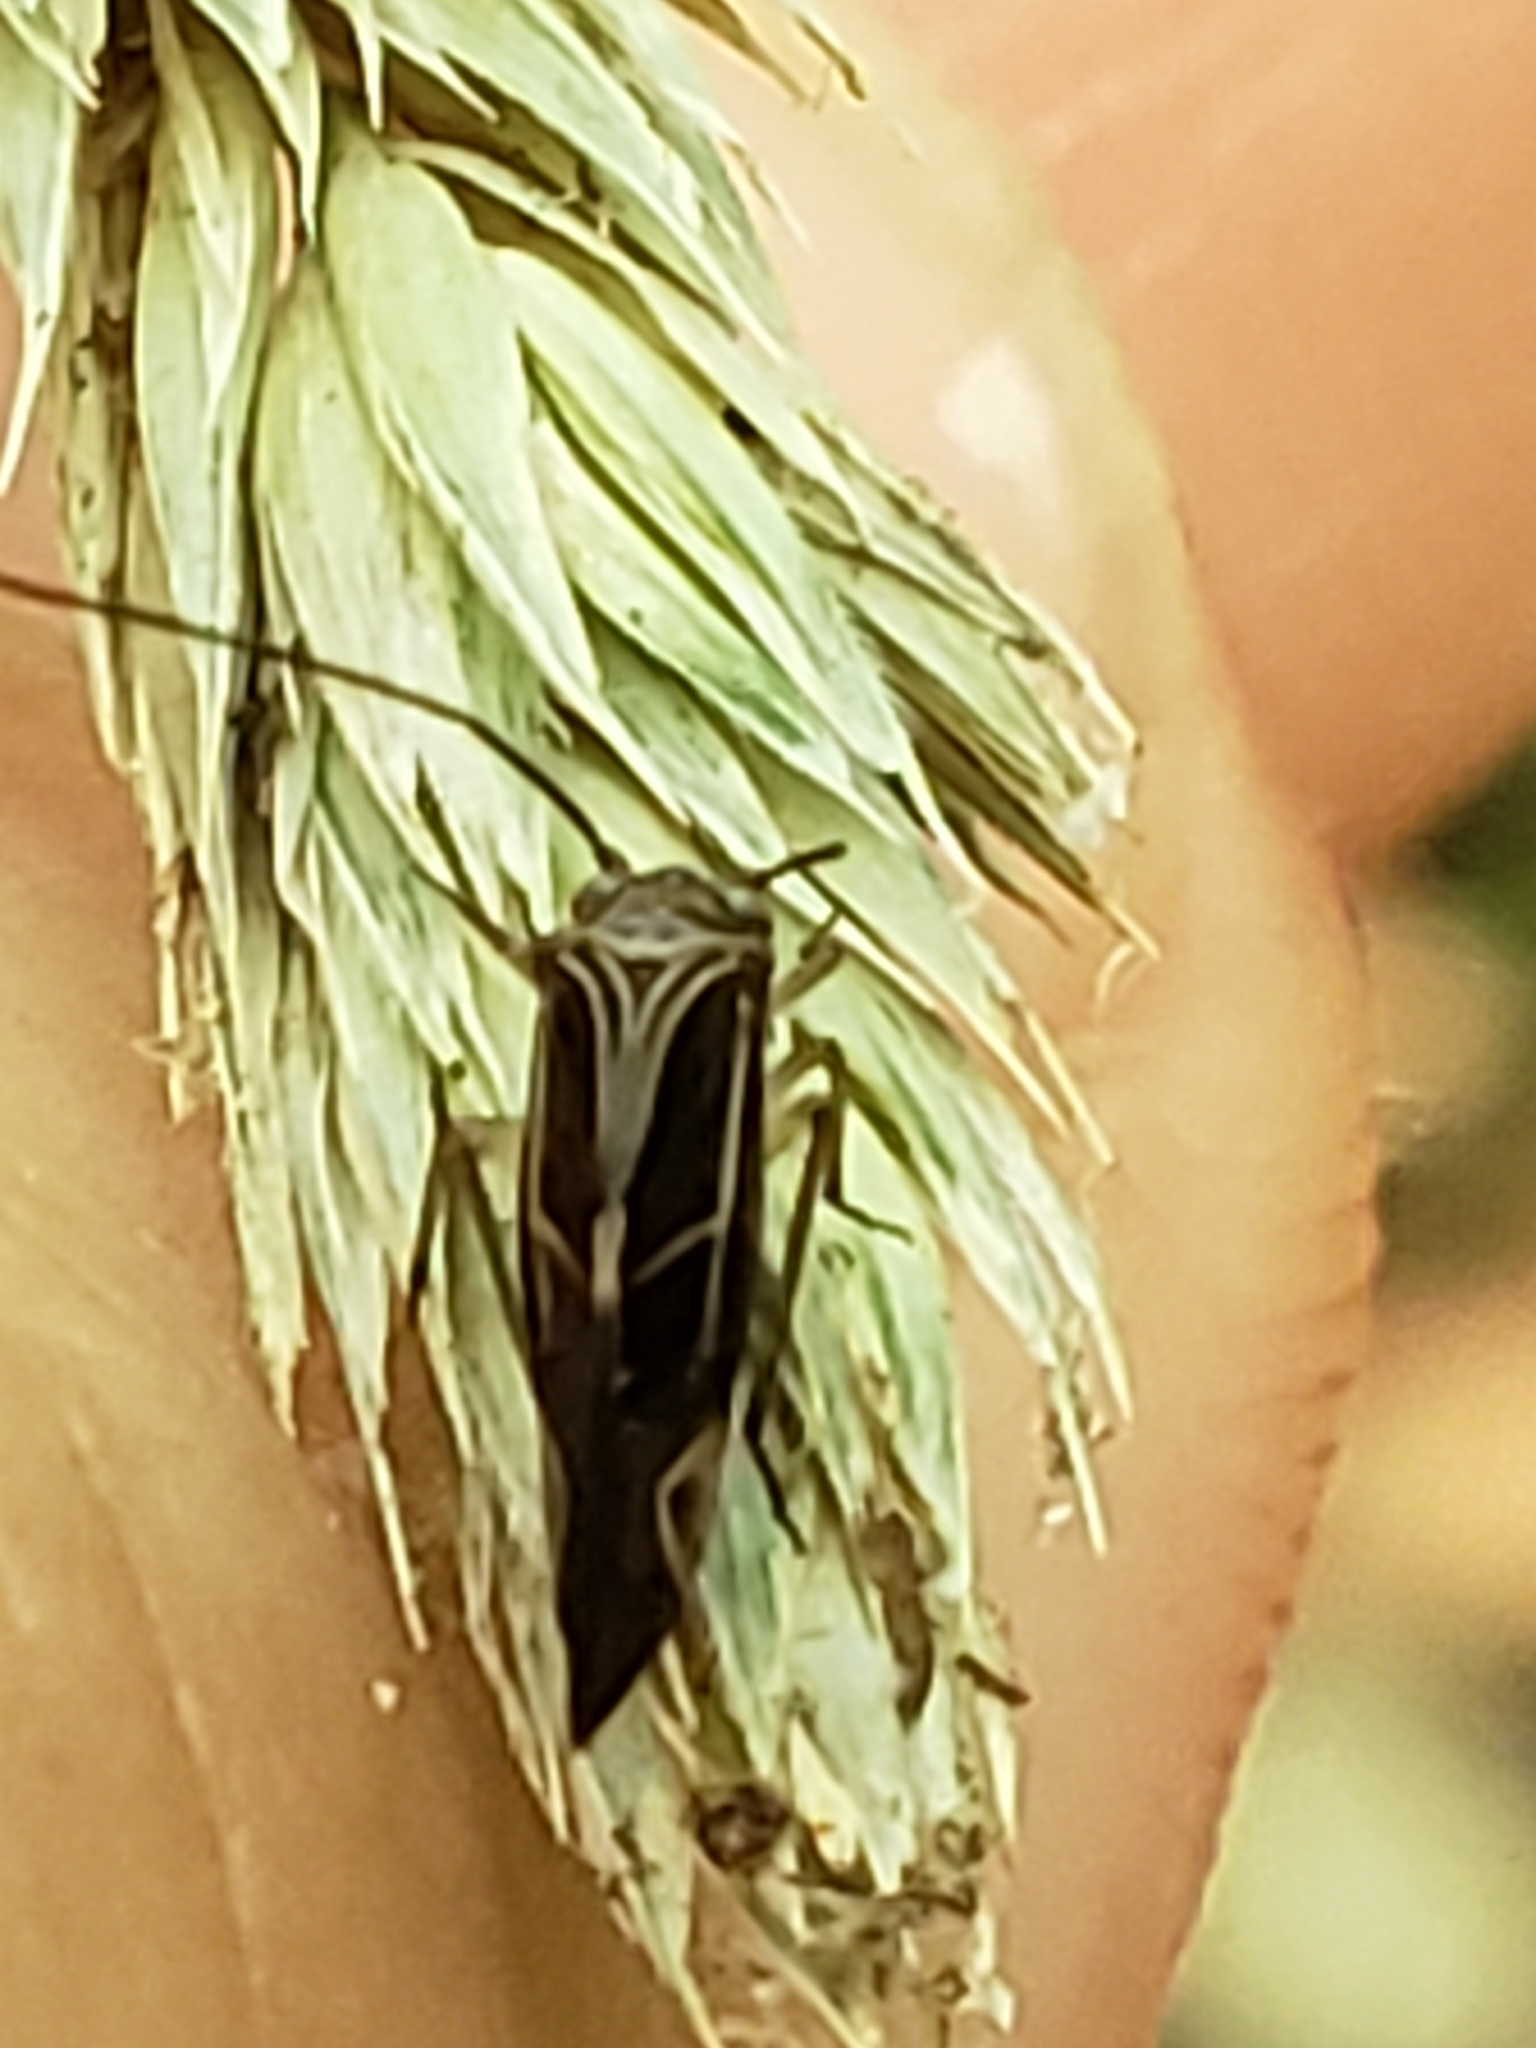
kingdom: Animalia
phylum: Arthropoda
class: Insecta
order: Psocodea
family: Psocidae
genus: Cerastipsocus
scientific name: Cerastipsocus venosus
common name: Tree cattle
